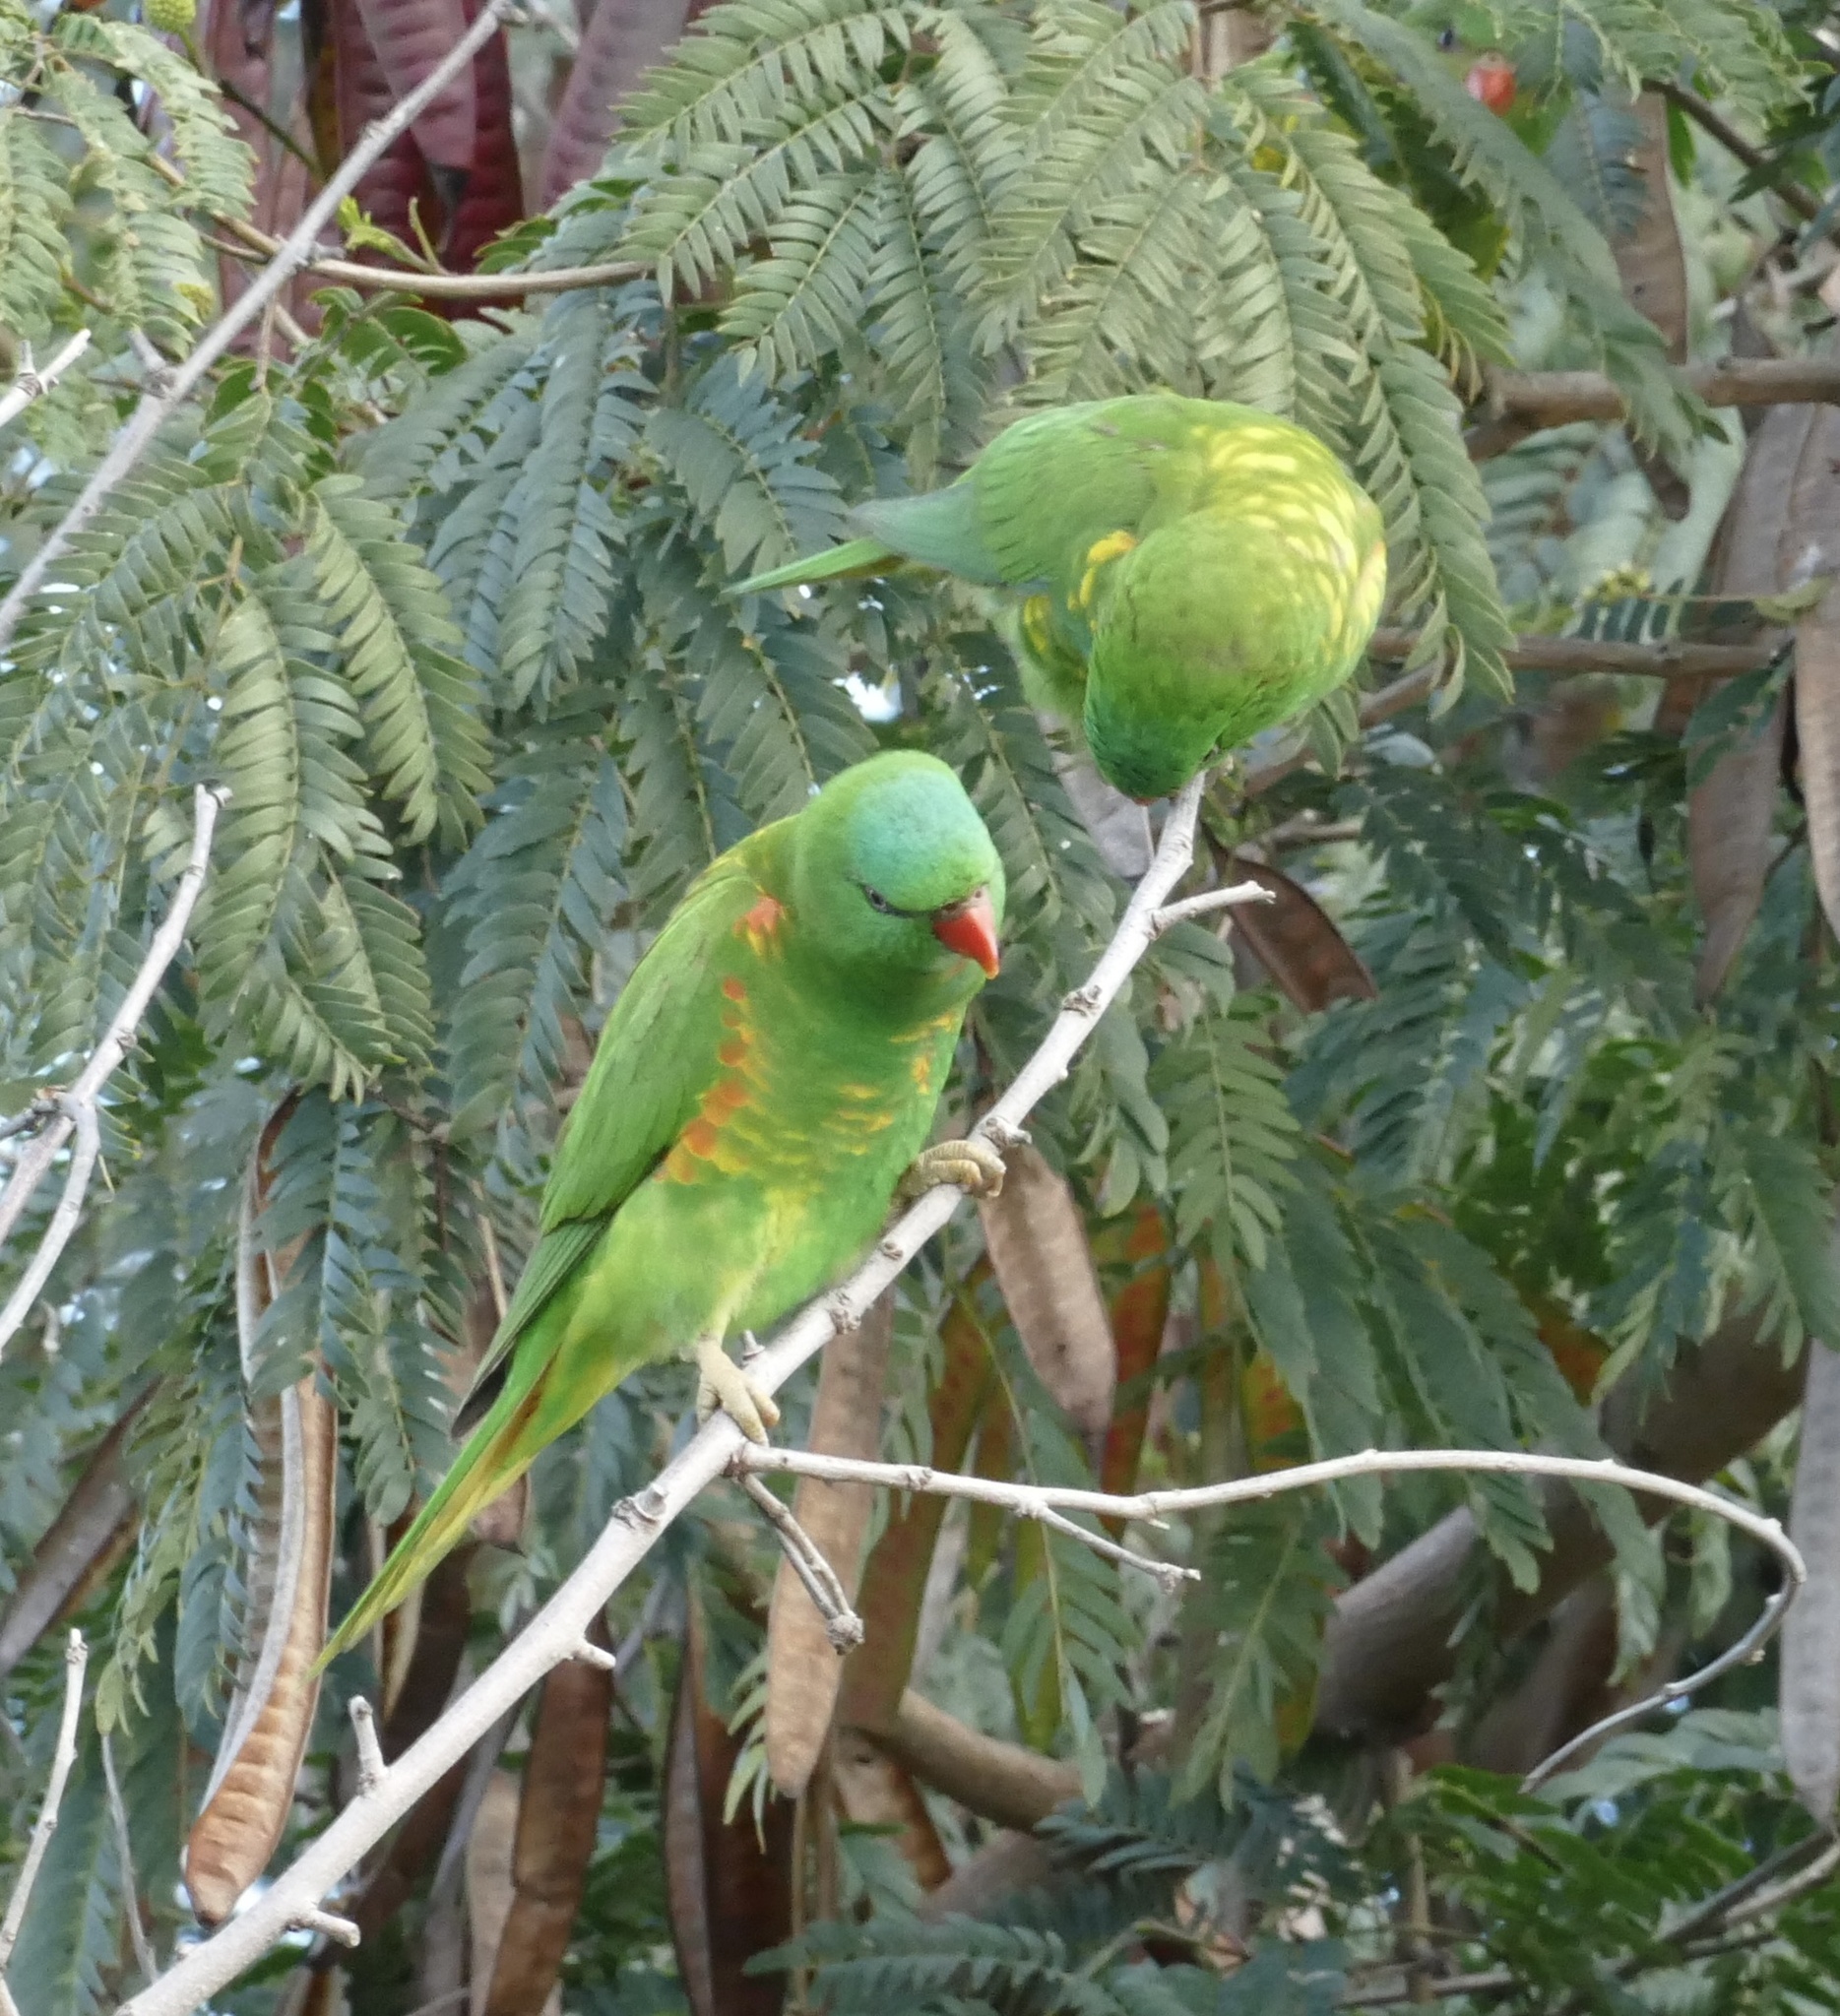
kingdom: Animalia
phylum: Chordata
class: Aves
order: Psittaciformes
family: Psittacidae
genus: Trichoglossus
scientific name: Trichoglossus chlorolepidotus
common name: Scaly-breasted lorikeet
